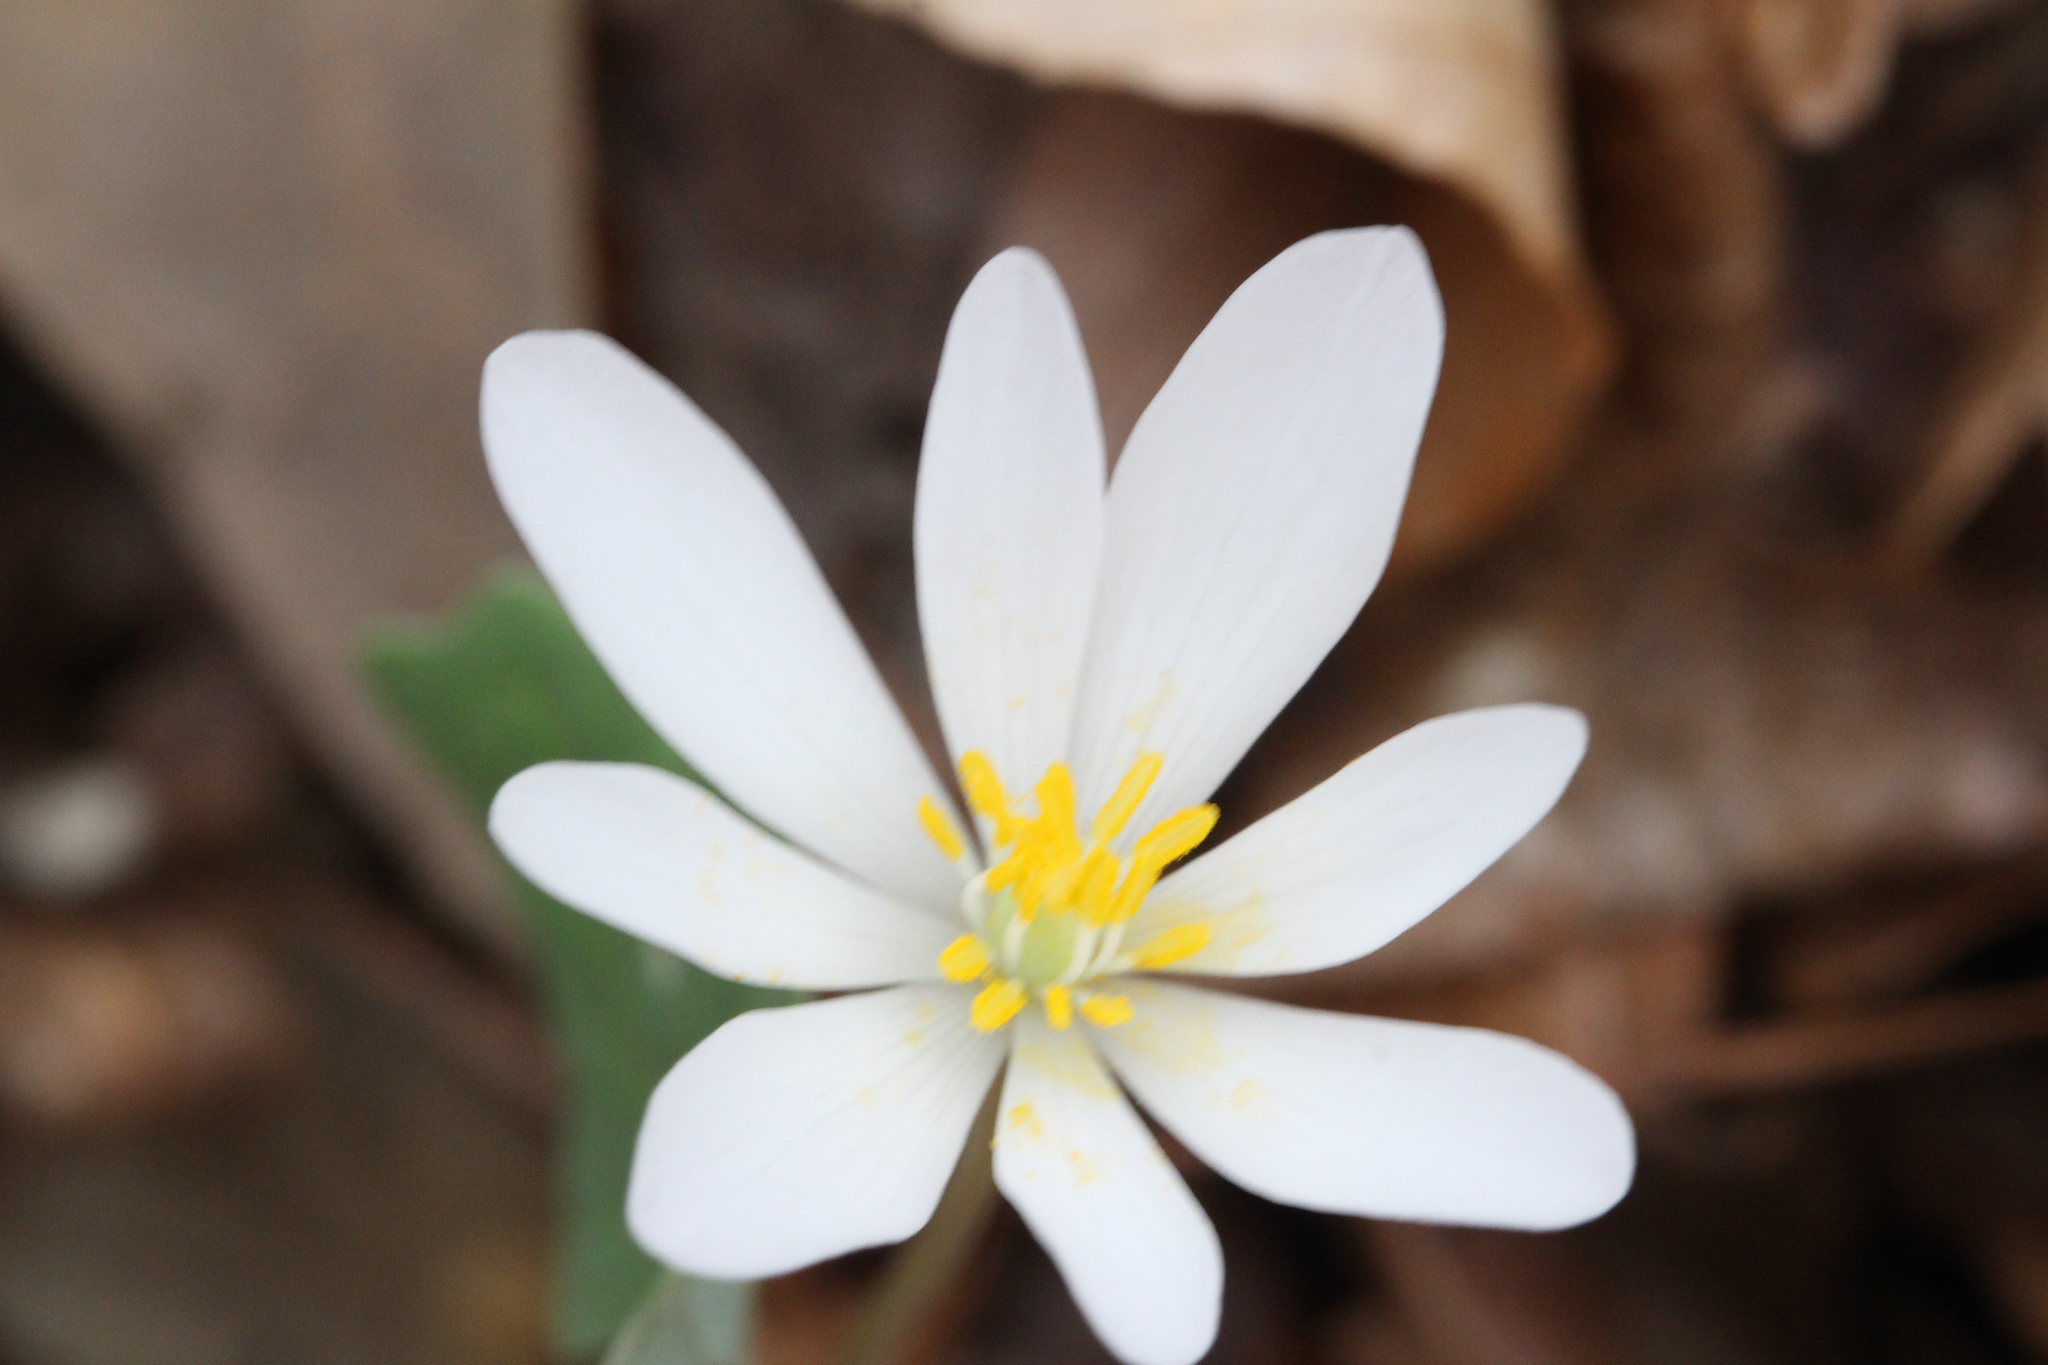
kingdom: Plantae
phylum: Tracheophyta
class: Magnoliopsida
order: Ranunculales
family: Papaveraceae
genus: Sanguinaria
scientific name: Sanguinaria canadensis
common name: Bloodroot
